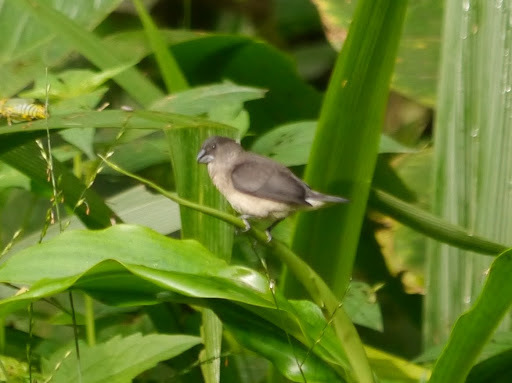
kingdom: Animalia
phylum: Chordata
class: Aves
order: Passeriformes
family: Estrildidae
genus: Lonchura
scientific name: Lonchura bicolor
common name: Black-and-white mannikin
